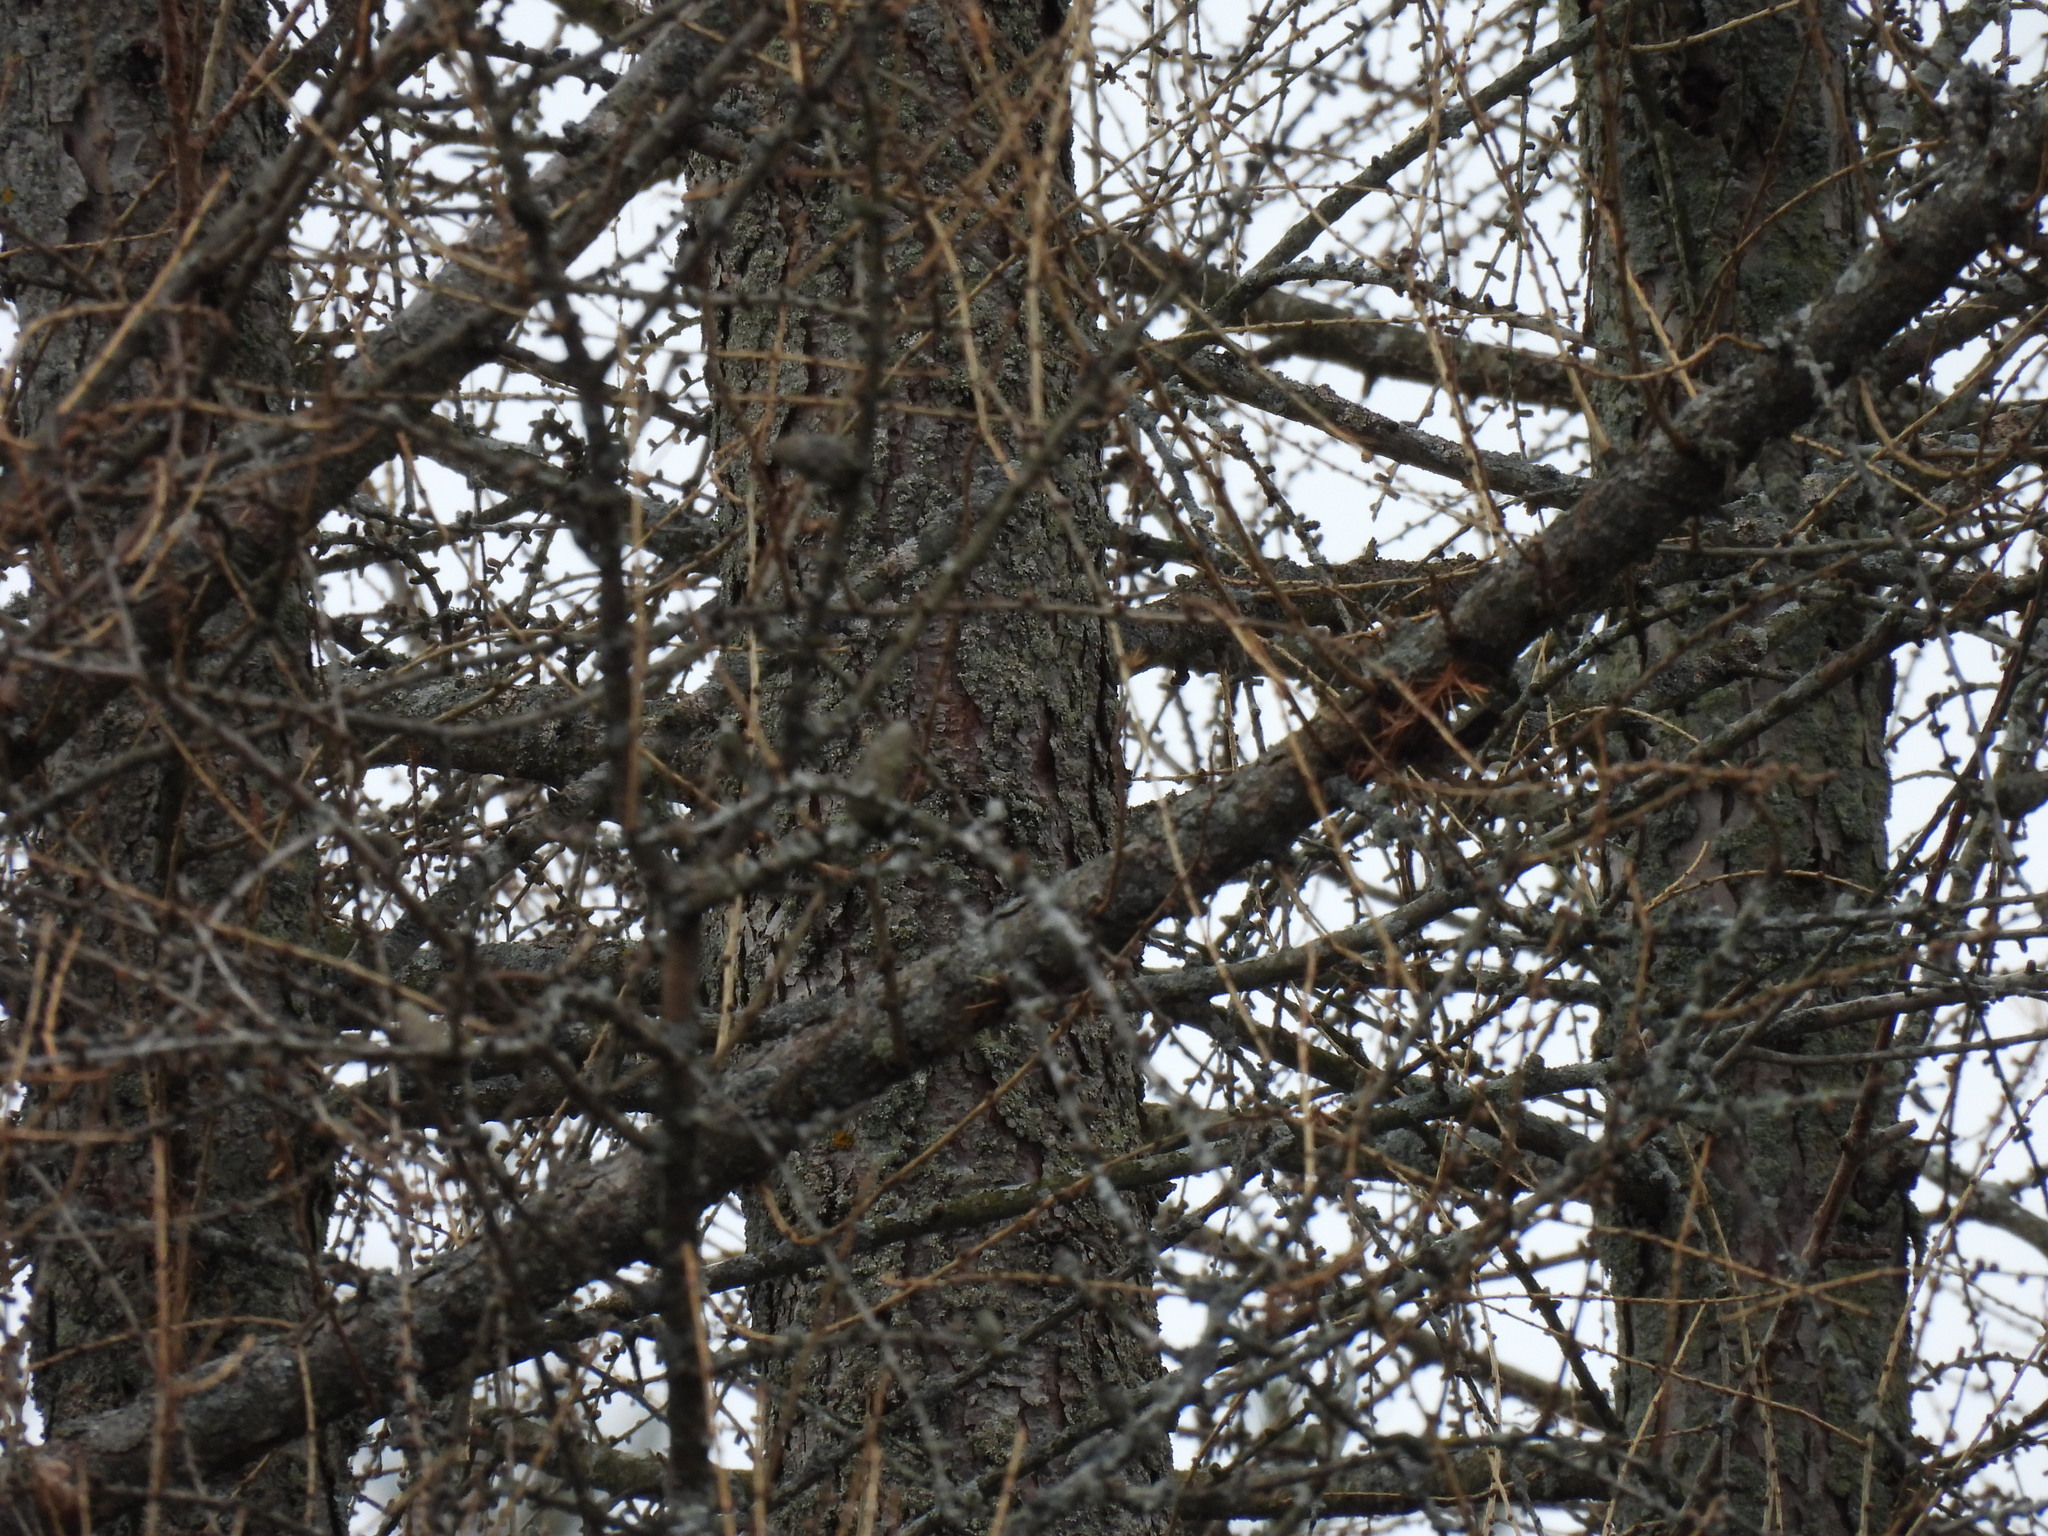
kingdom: Plantae
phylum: Tracheophyta
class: Pinopsida
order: Pinales
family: Pinaceae
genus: Larix
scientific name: Larix laricina
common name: American larch
